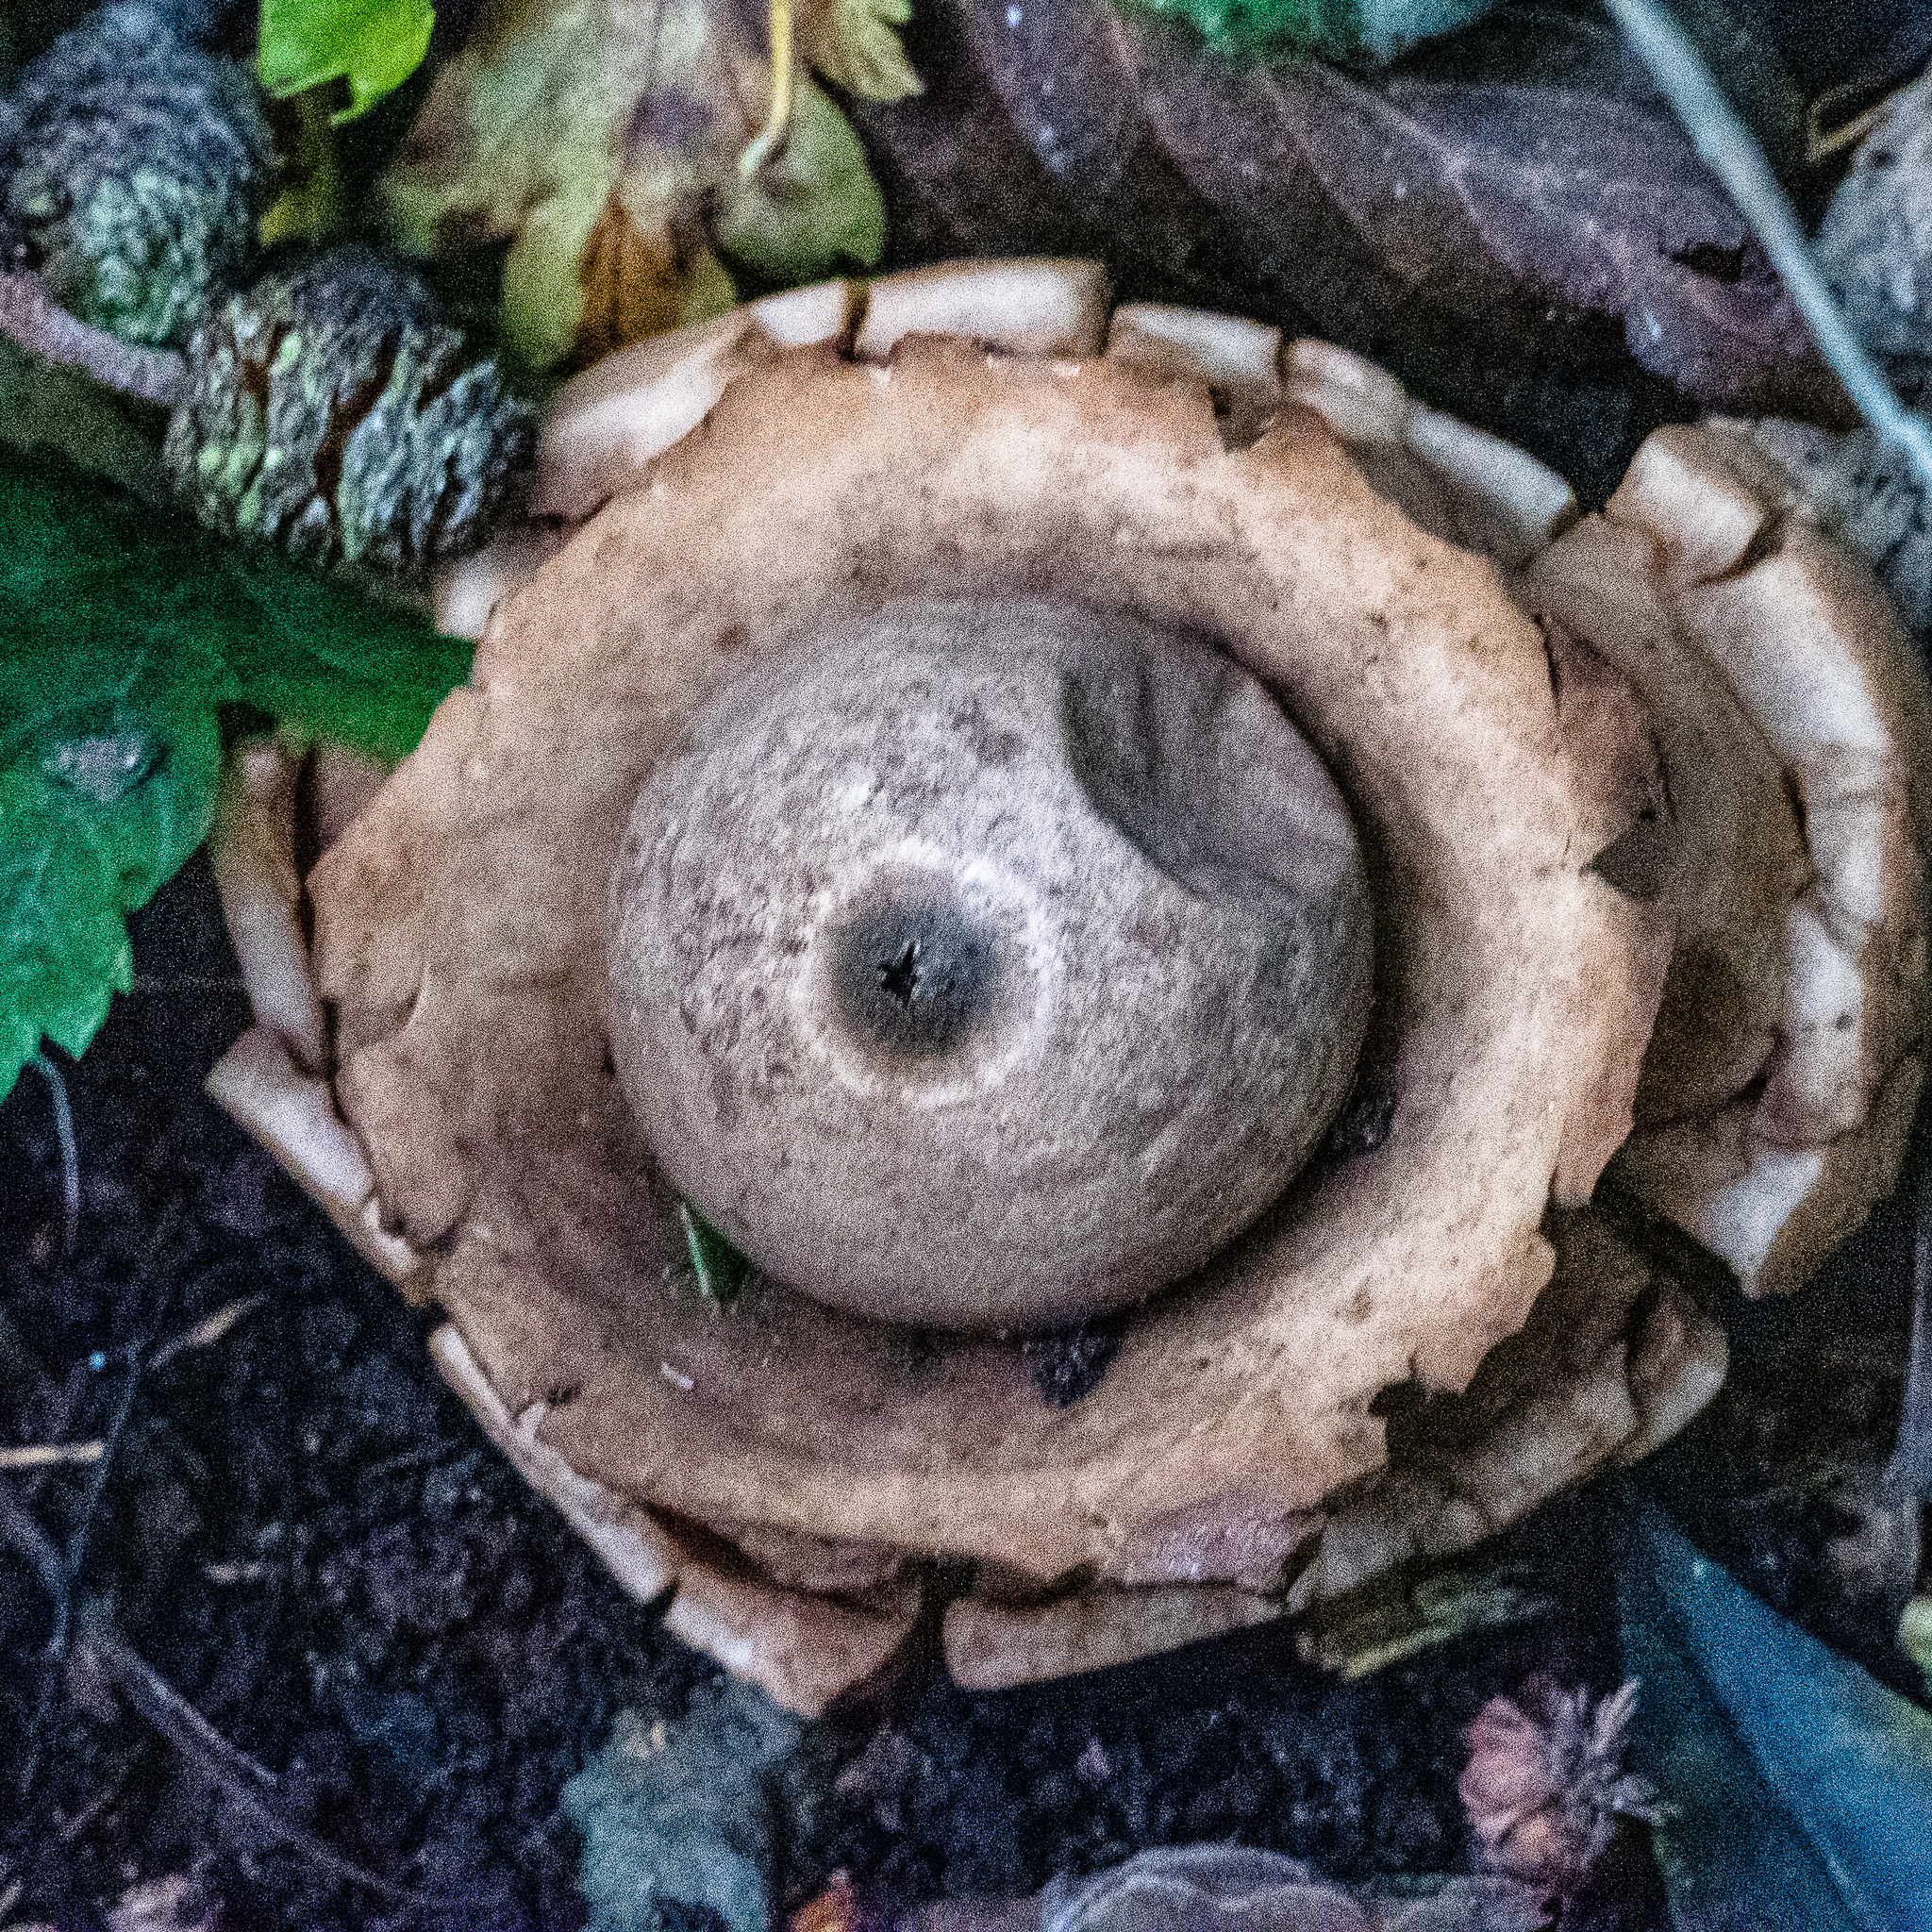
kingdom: Fungi
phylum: Basidiomycota
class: Agaricomycetes
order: Geastrales
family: Geastraceae
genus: Geastrum
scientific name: Geastrum triplex
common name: Collared earthstar
